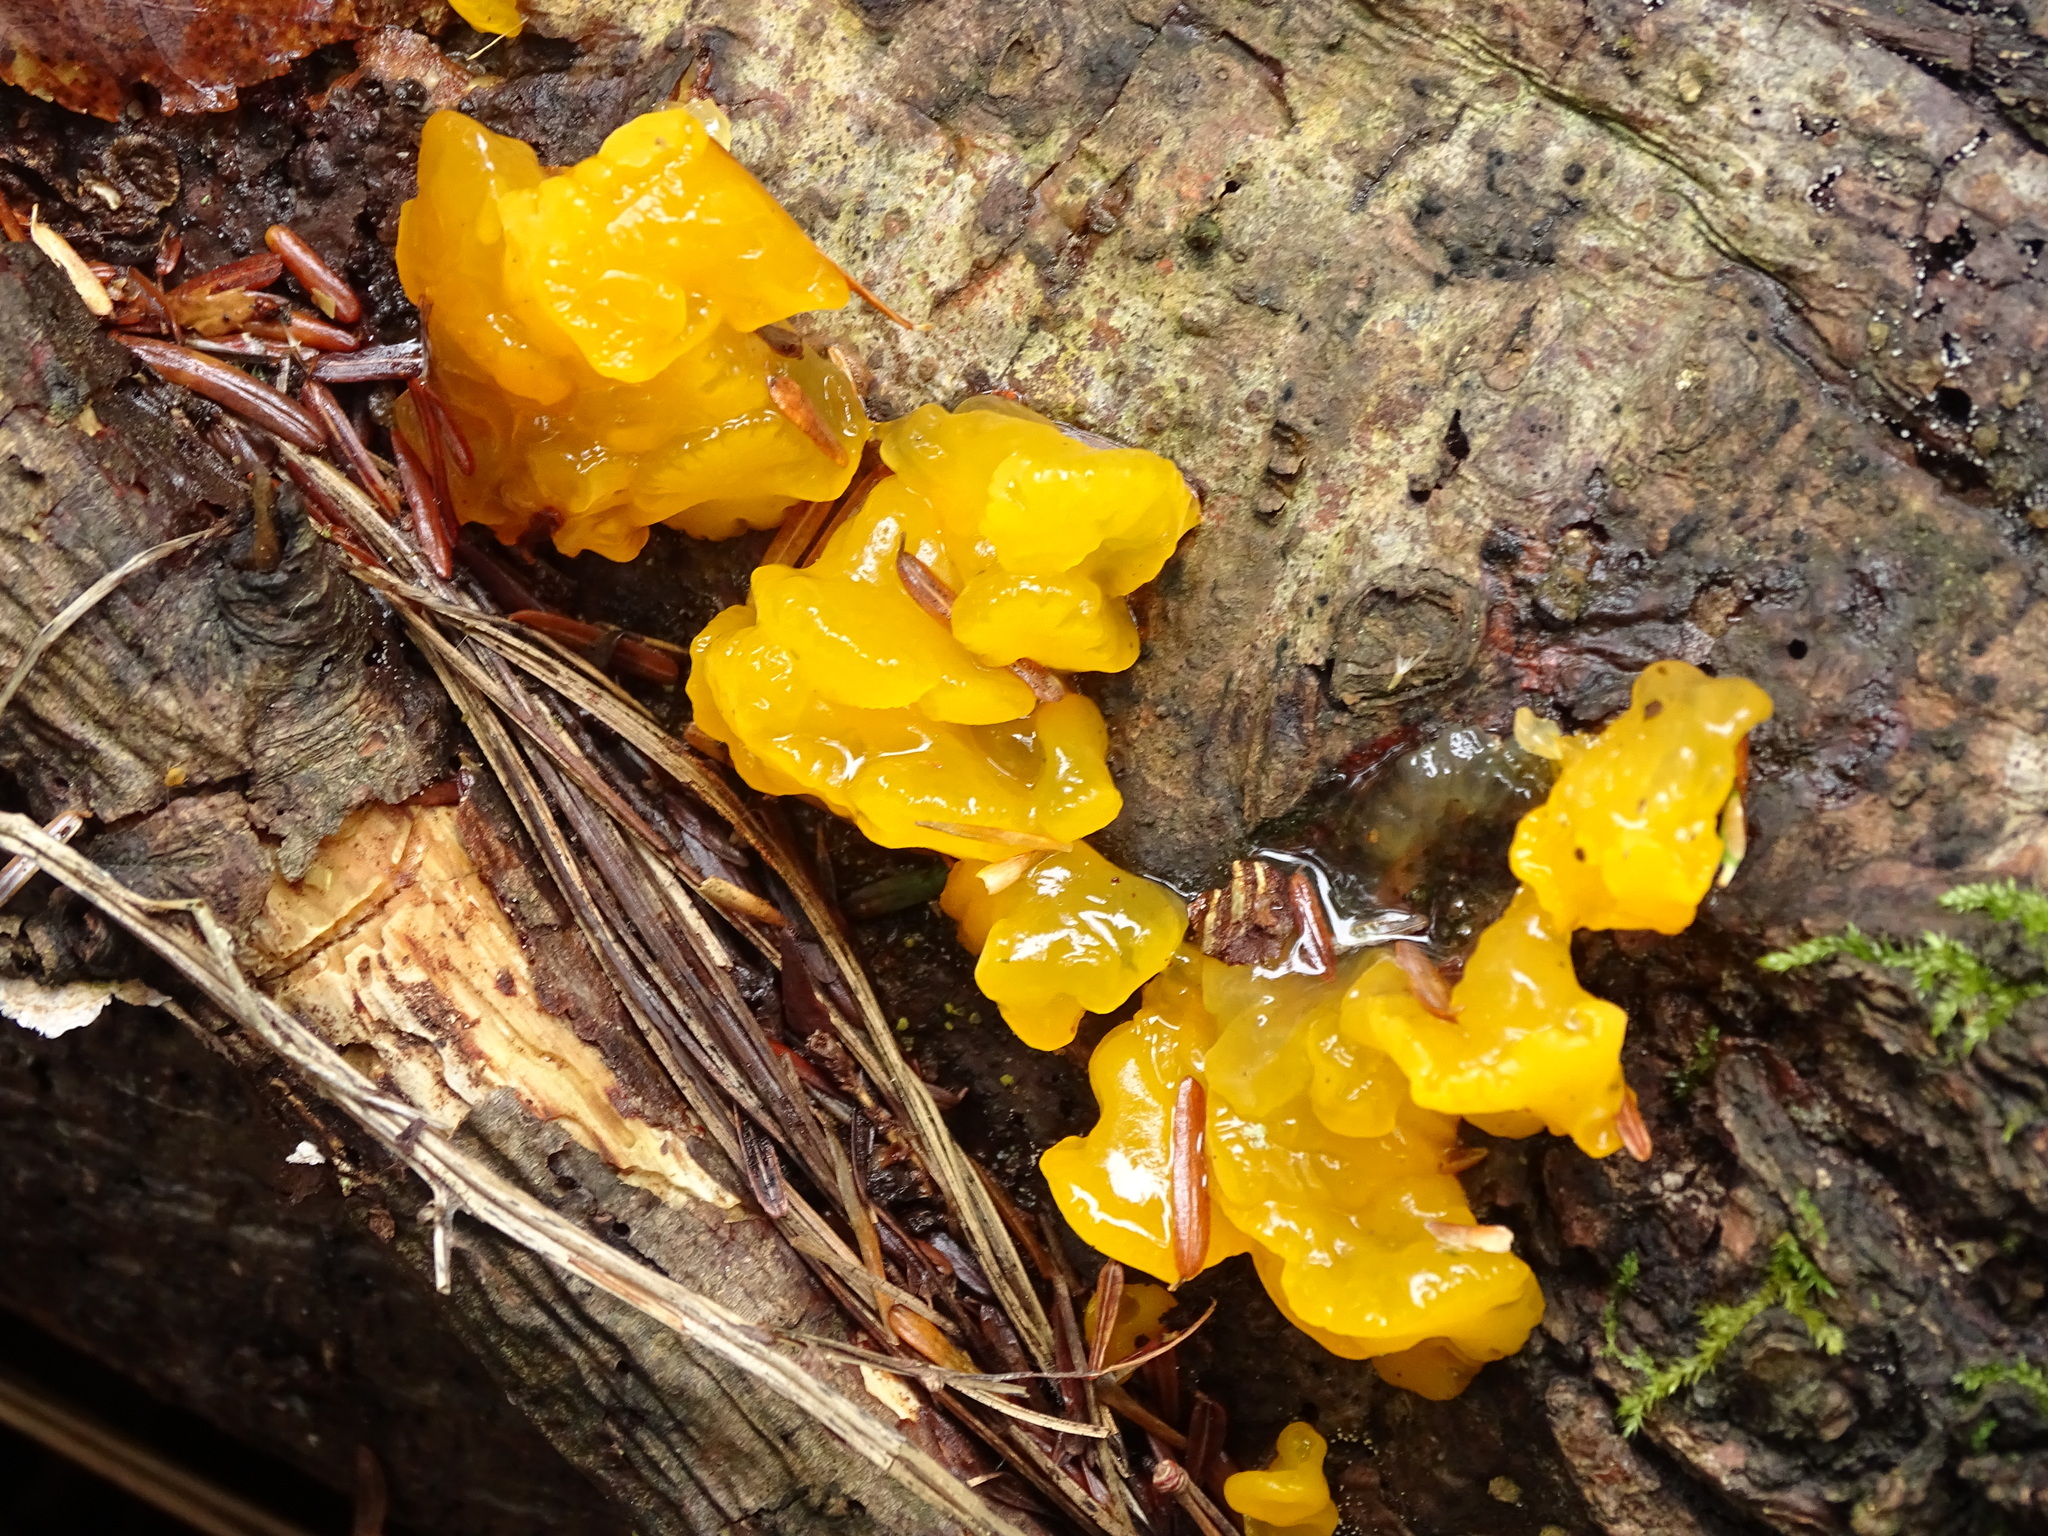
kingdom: Fungi
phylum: Basidiomycota
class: Dacrymycetes
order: Dacrymycetales
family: Dacrymycetaceae
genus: Dacrymyces
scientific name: Dacrymyces chrysospermus
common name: Orange jelly spot
